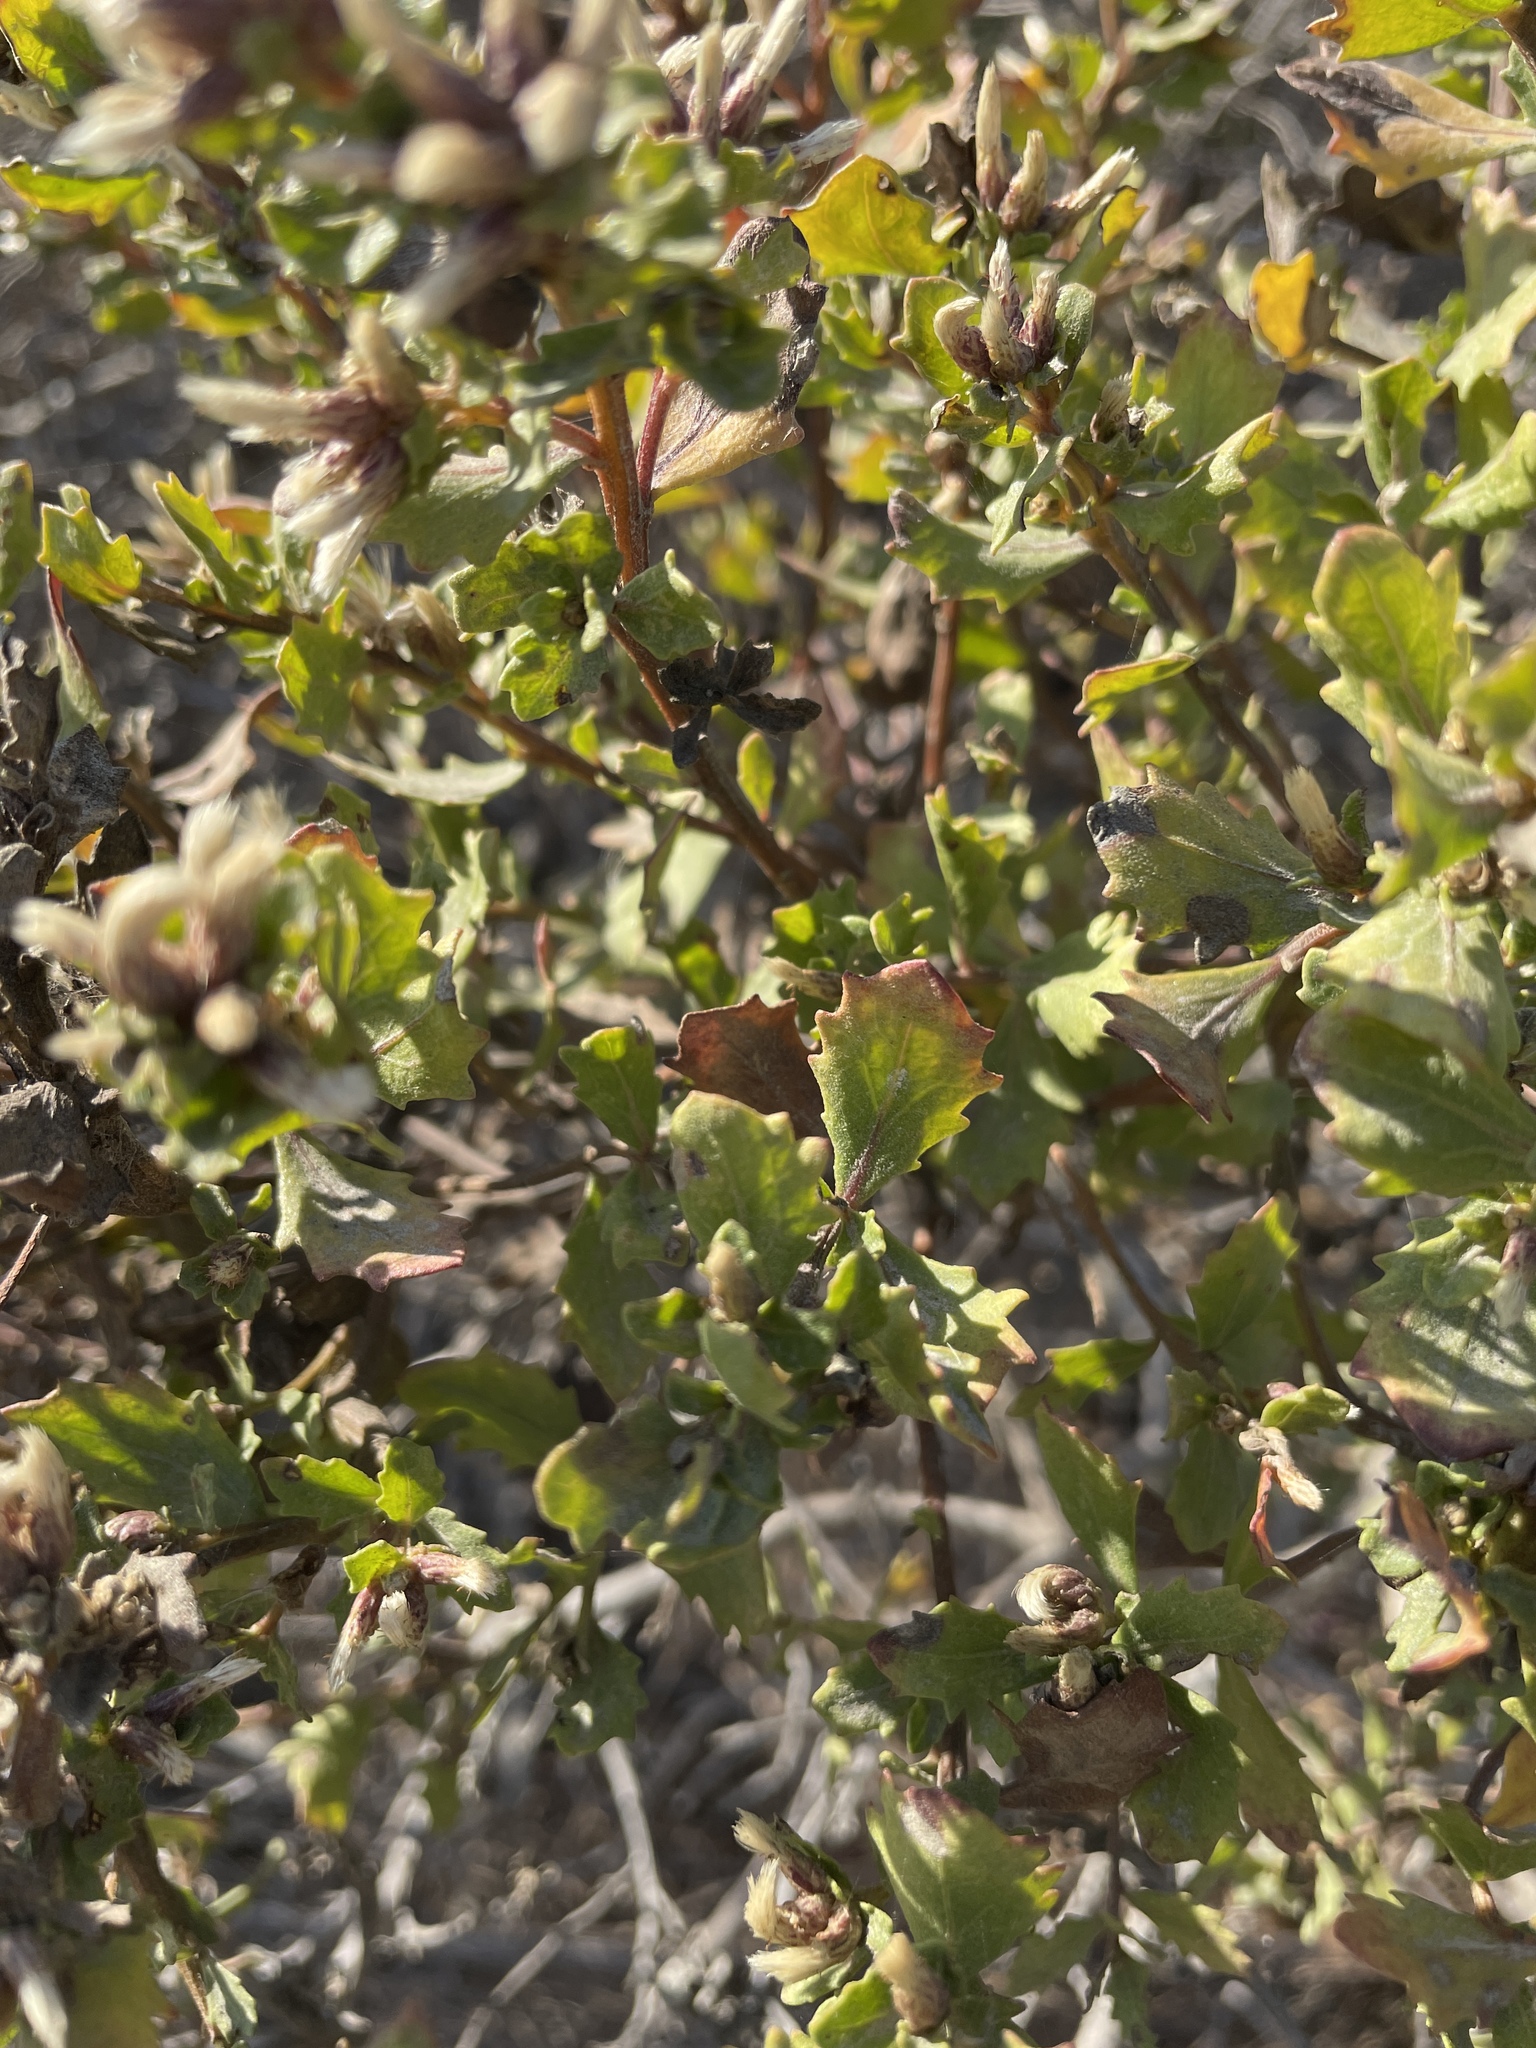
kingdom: Plantae
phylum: Tracheophyta
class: Magnoliopsida
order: Asterales
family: Asteraceae
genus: Baccharis
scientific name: Baccharis pilularis
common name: Coyotebrush
